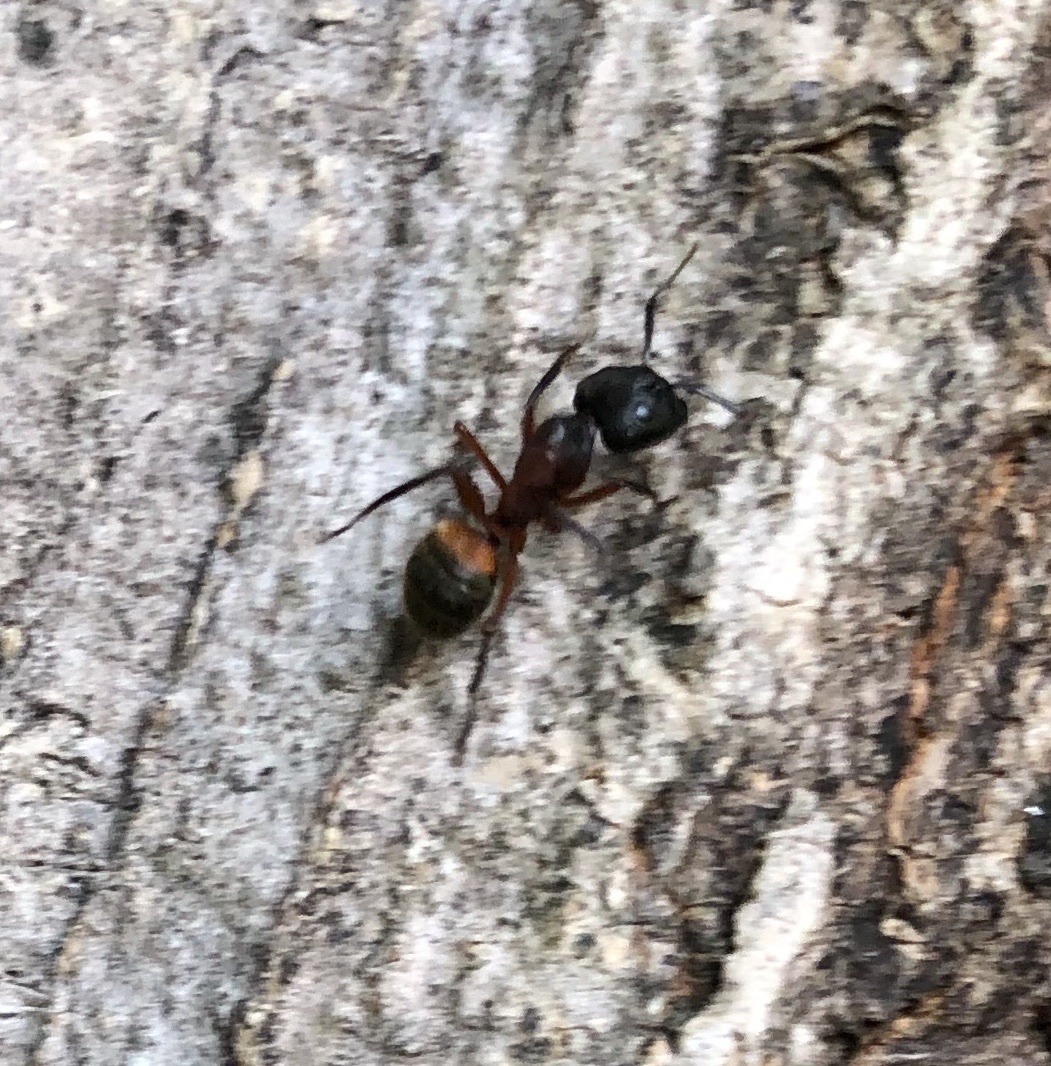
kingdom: Animalia
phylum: Arthropoda
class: Insecta
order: Hymenoptera
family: Formicidae
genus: Camponotus
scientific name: Camponotus chromaiodes
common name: Red carpenter ant
